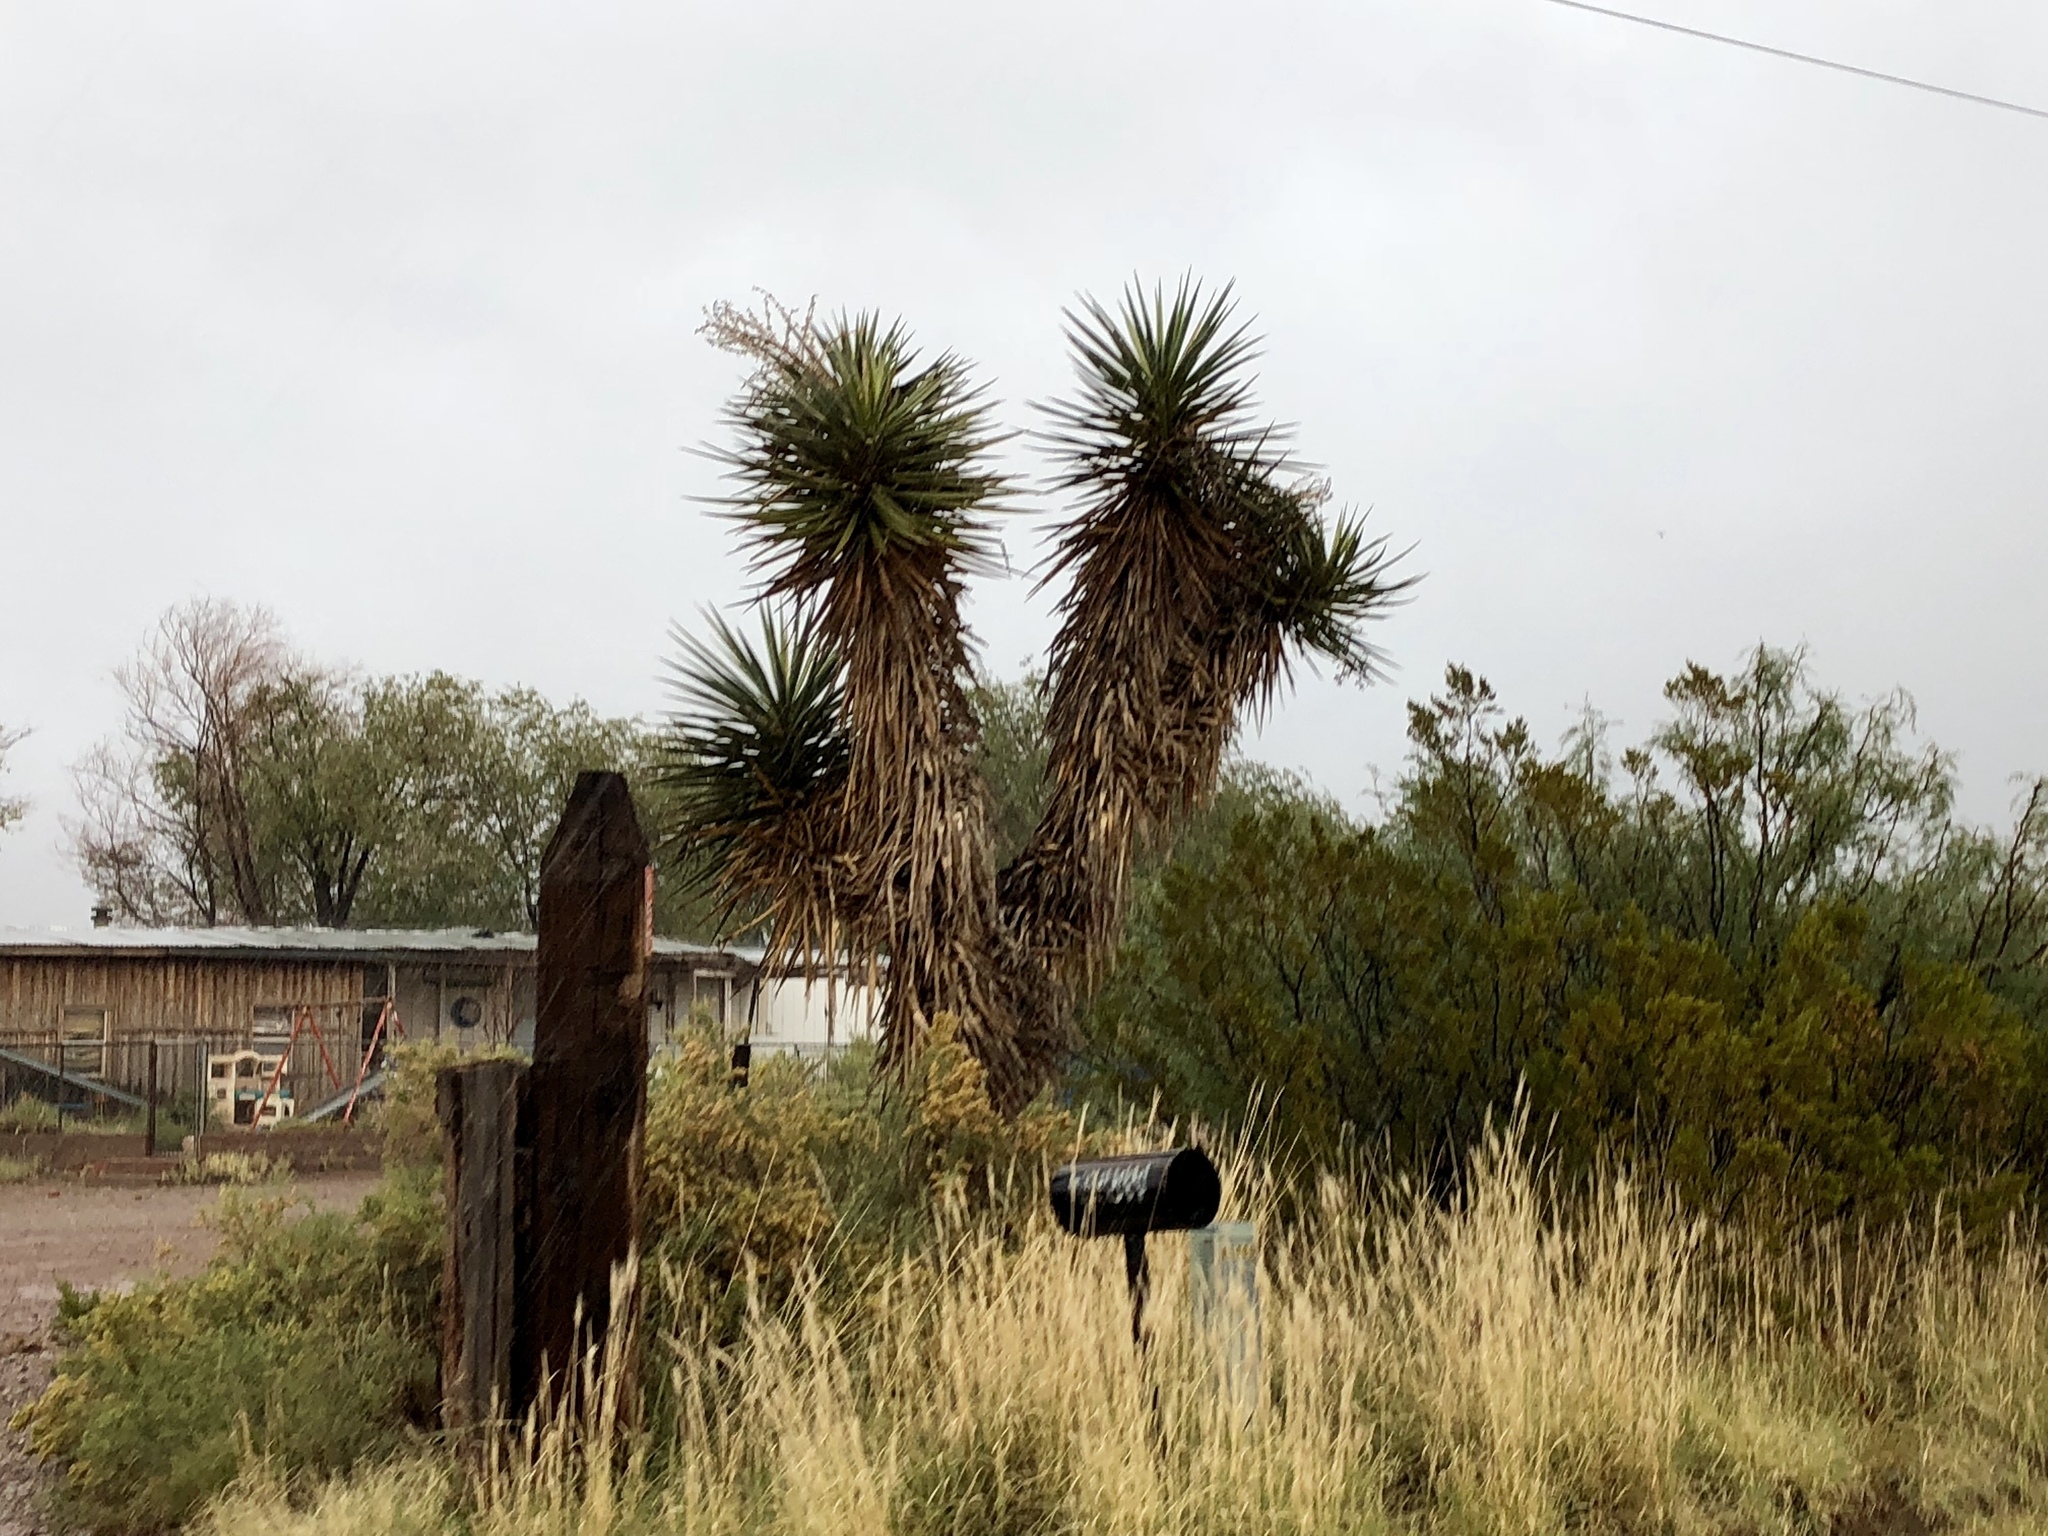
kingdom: Plantae
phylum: Tracheophyta
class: Liliopsida
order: Asparagales
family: Asparagaceae
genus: Yucca
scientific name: Yucca treculiana
